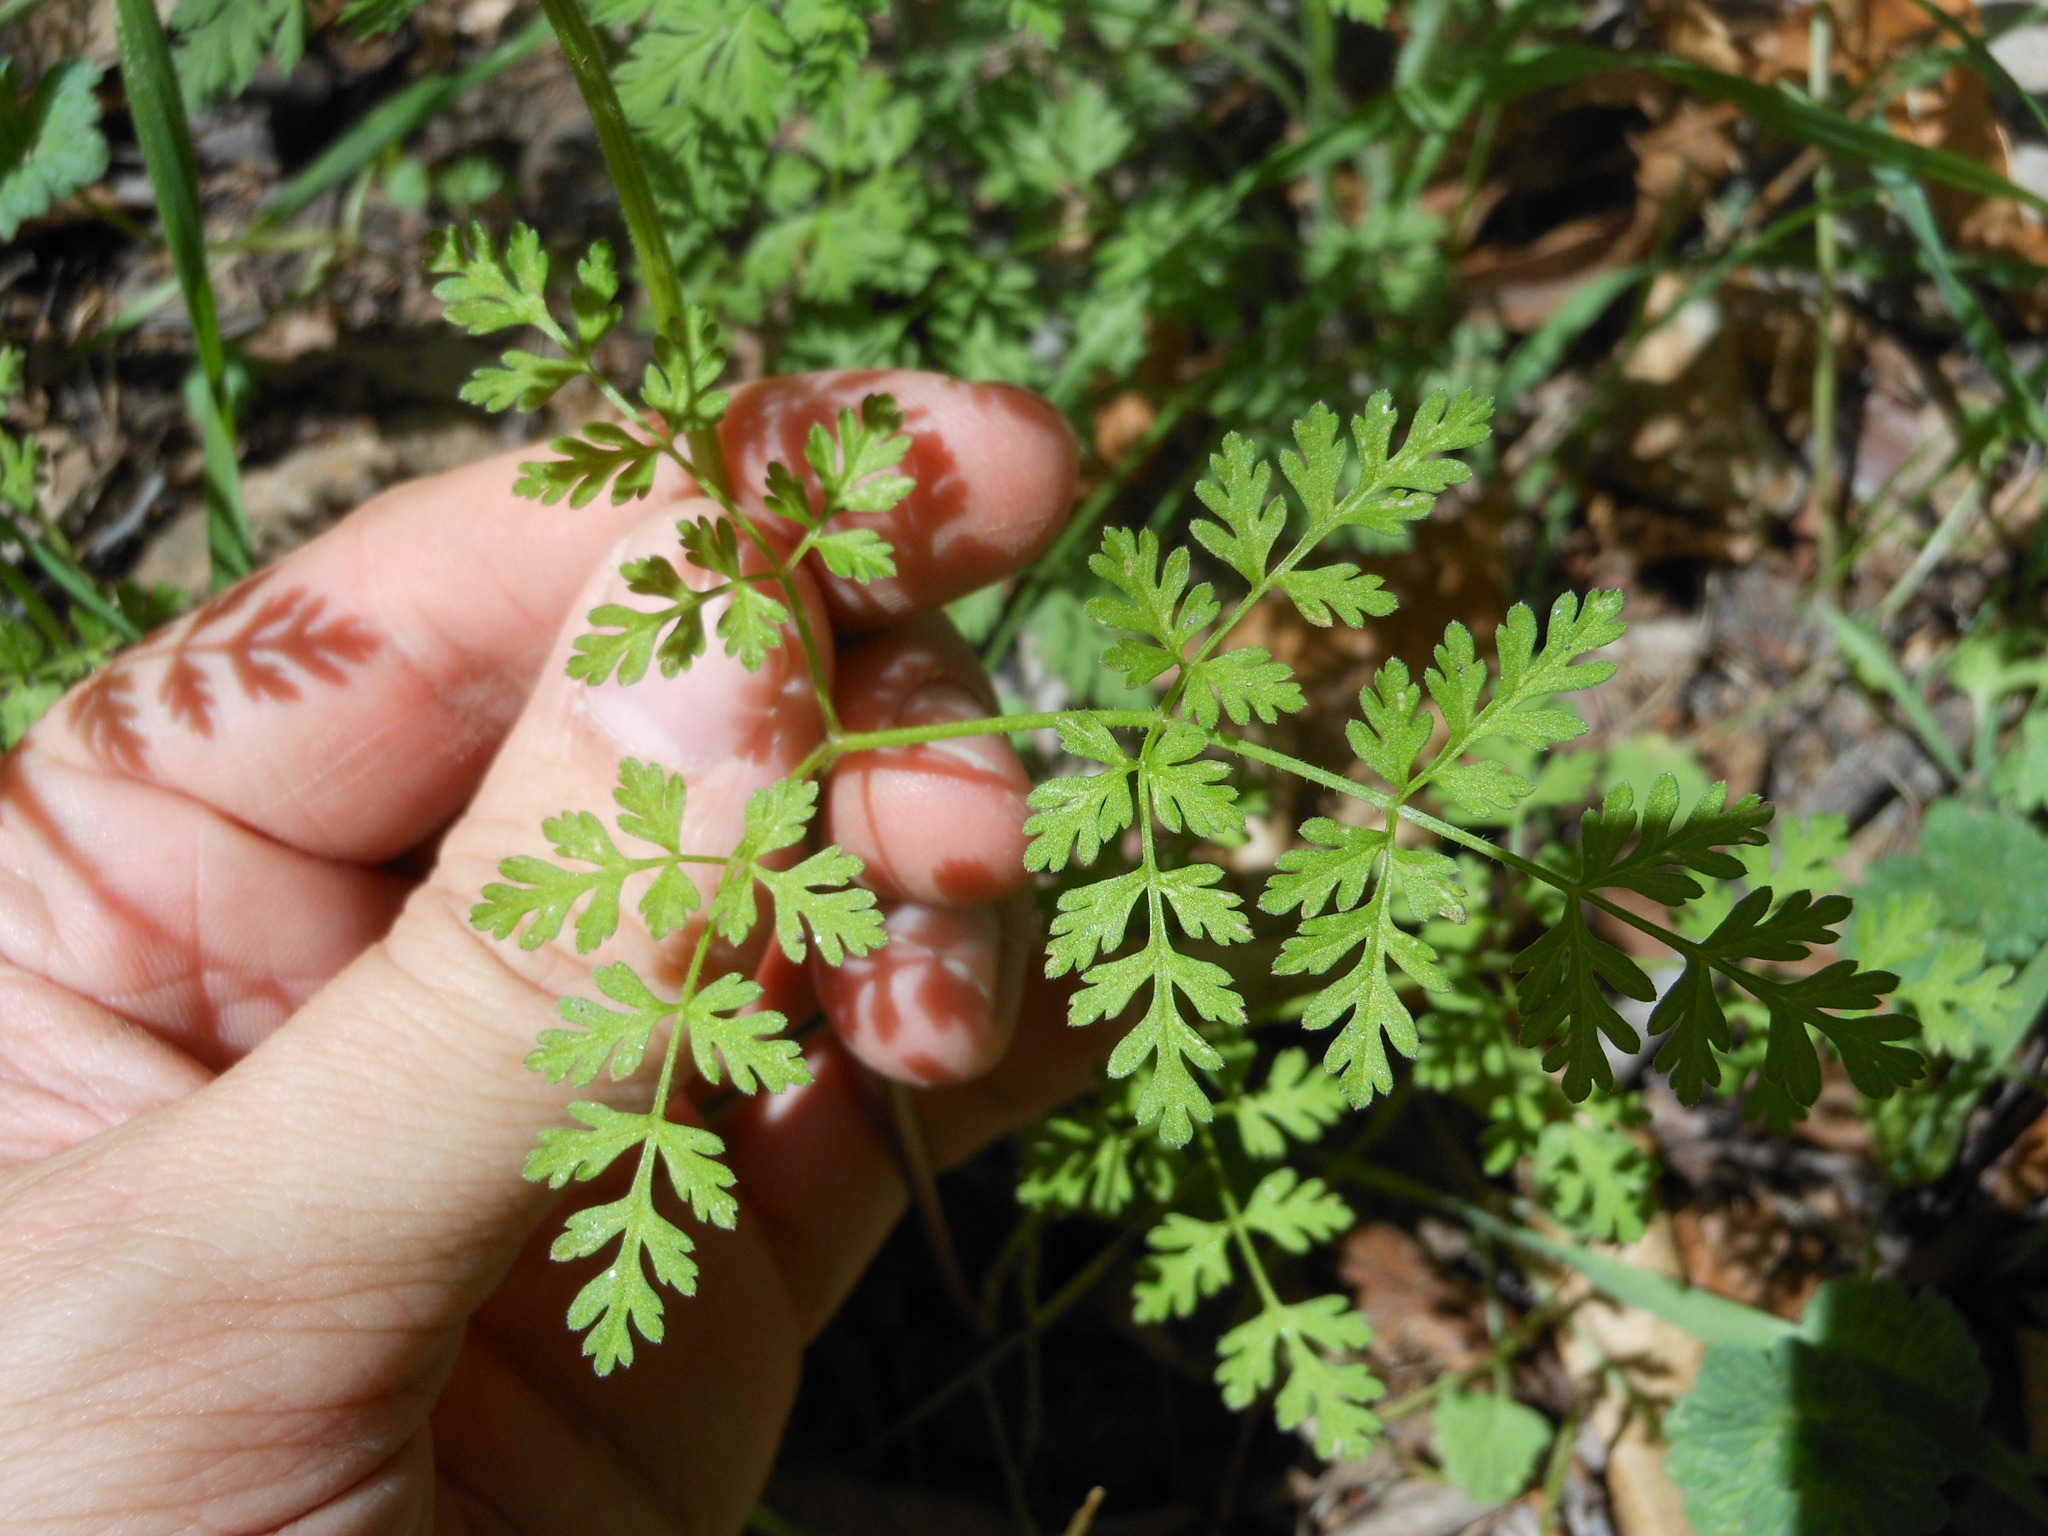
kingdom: Plantae
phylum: Tracheophyta
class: Magnoliopsida
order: Apiales
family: Apiaceae
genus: Chaerophyllum
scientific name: Chaerophyllum tainturieri
